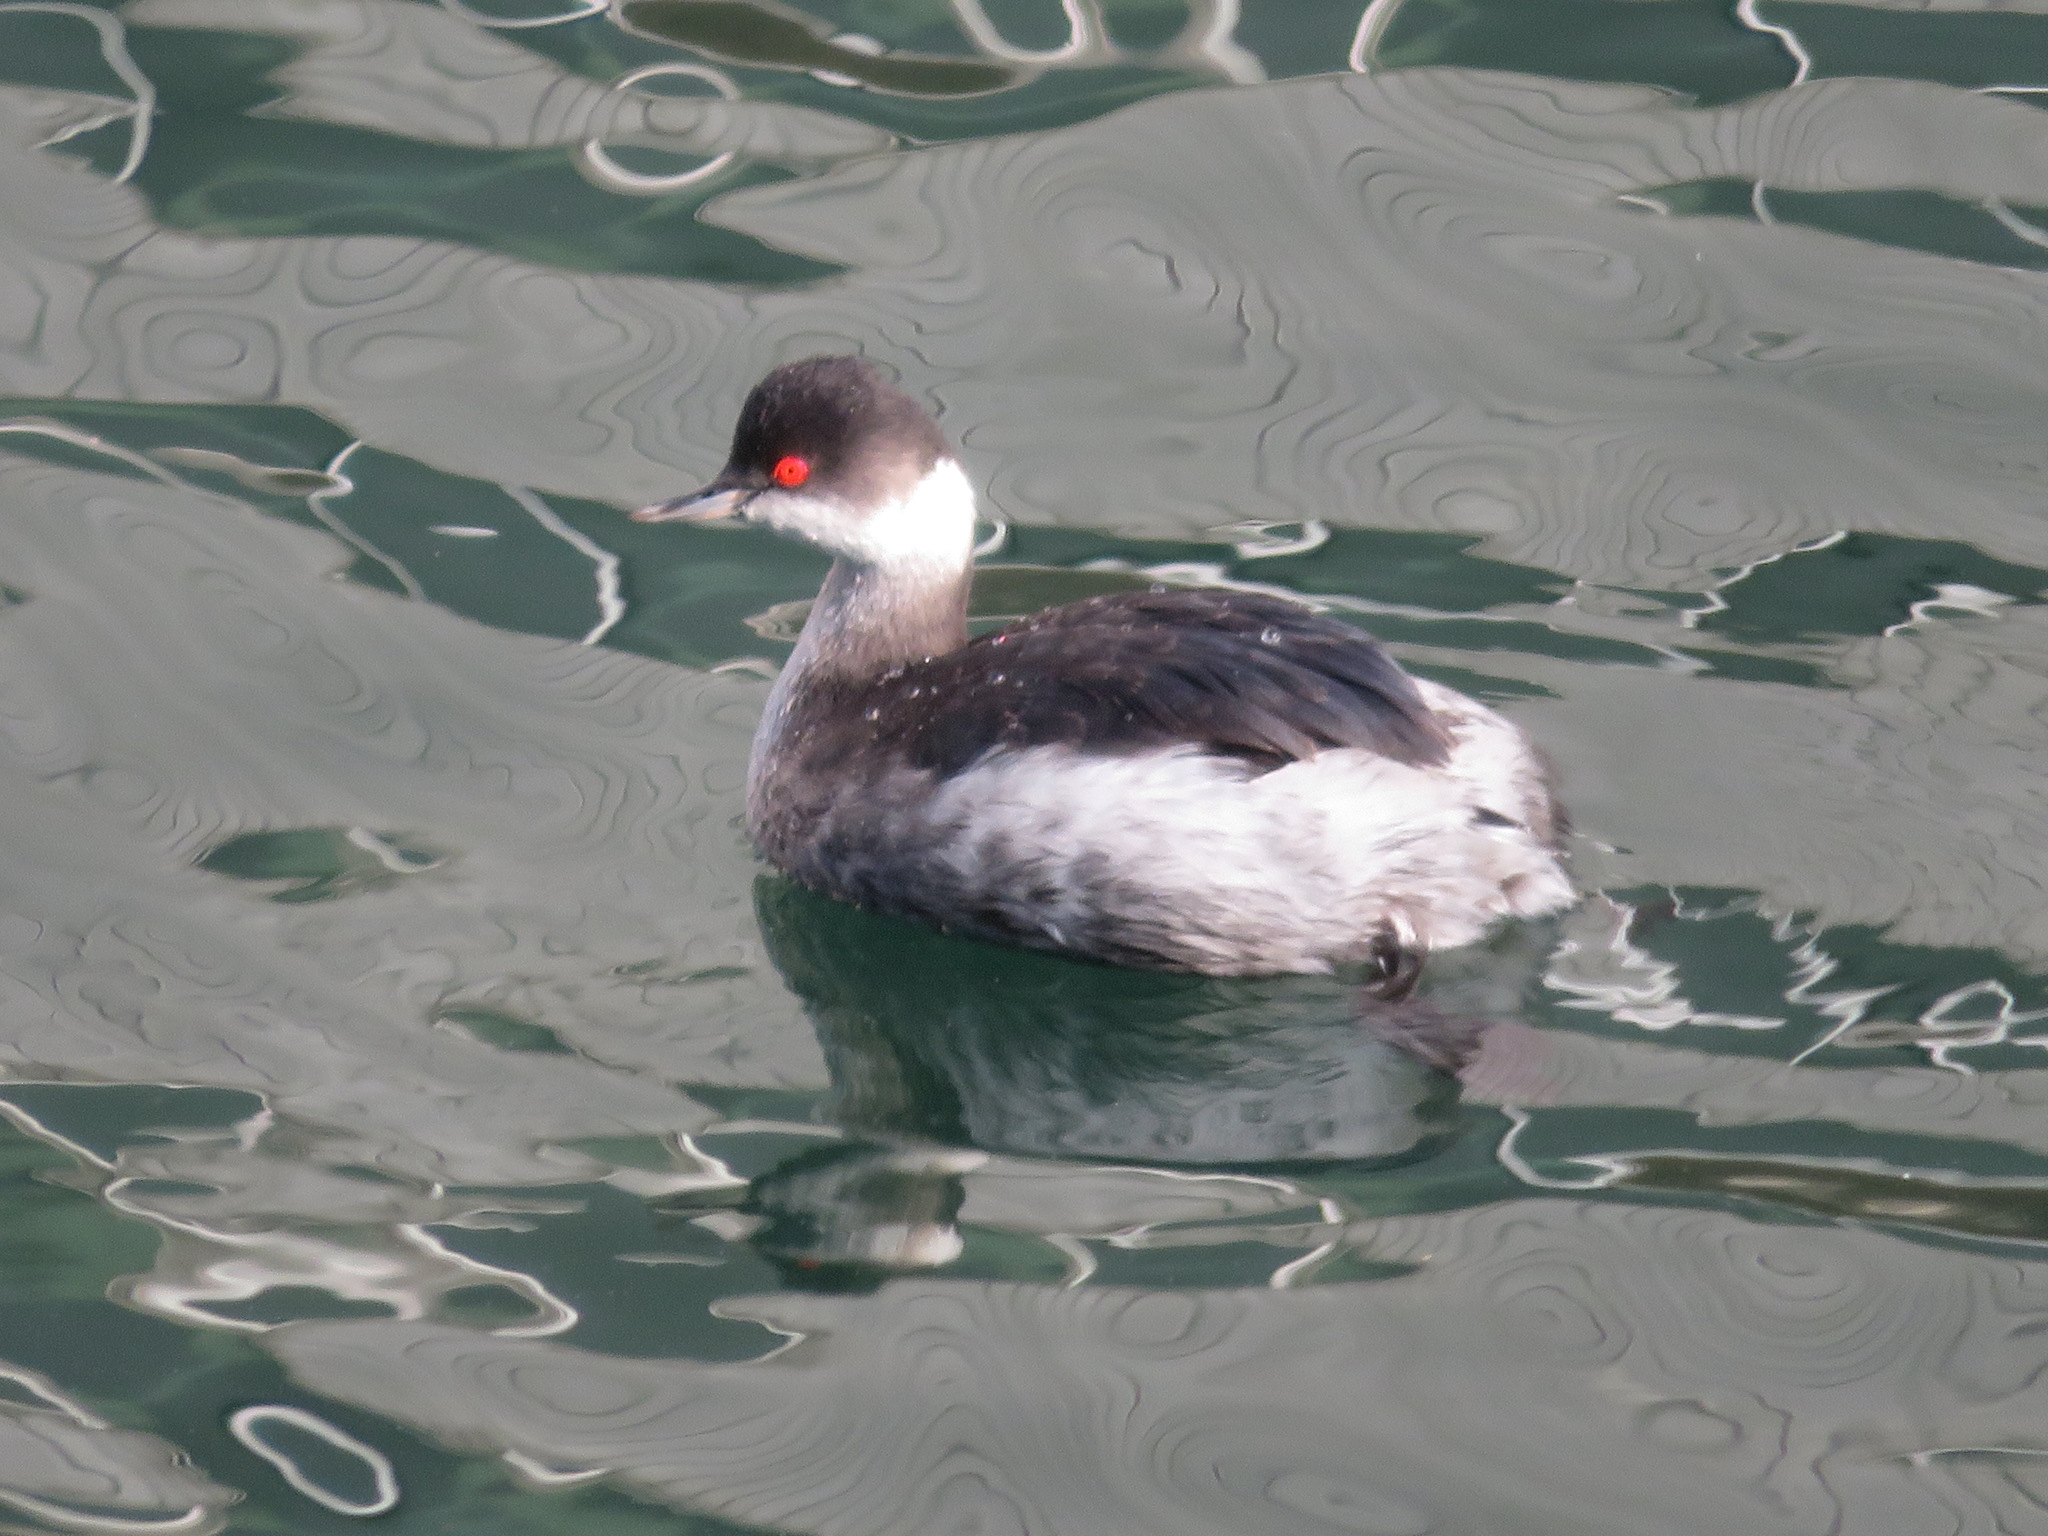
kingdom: Animalia
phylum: Chordata
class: Aves
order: Podicipediformes
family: Podicipedidae
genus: Podiceps
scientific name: Podiceps nigricollis
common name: Black-necked grebe
